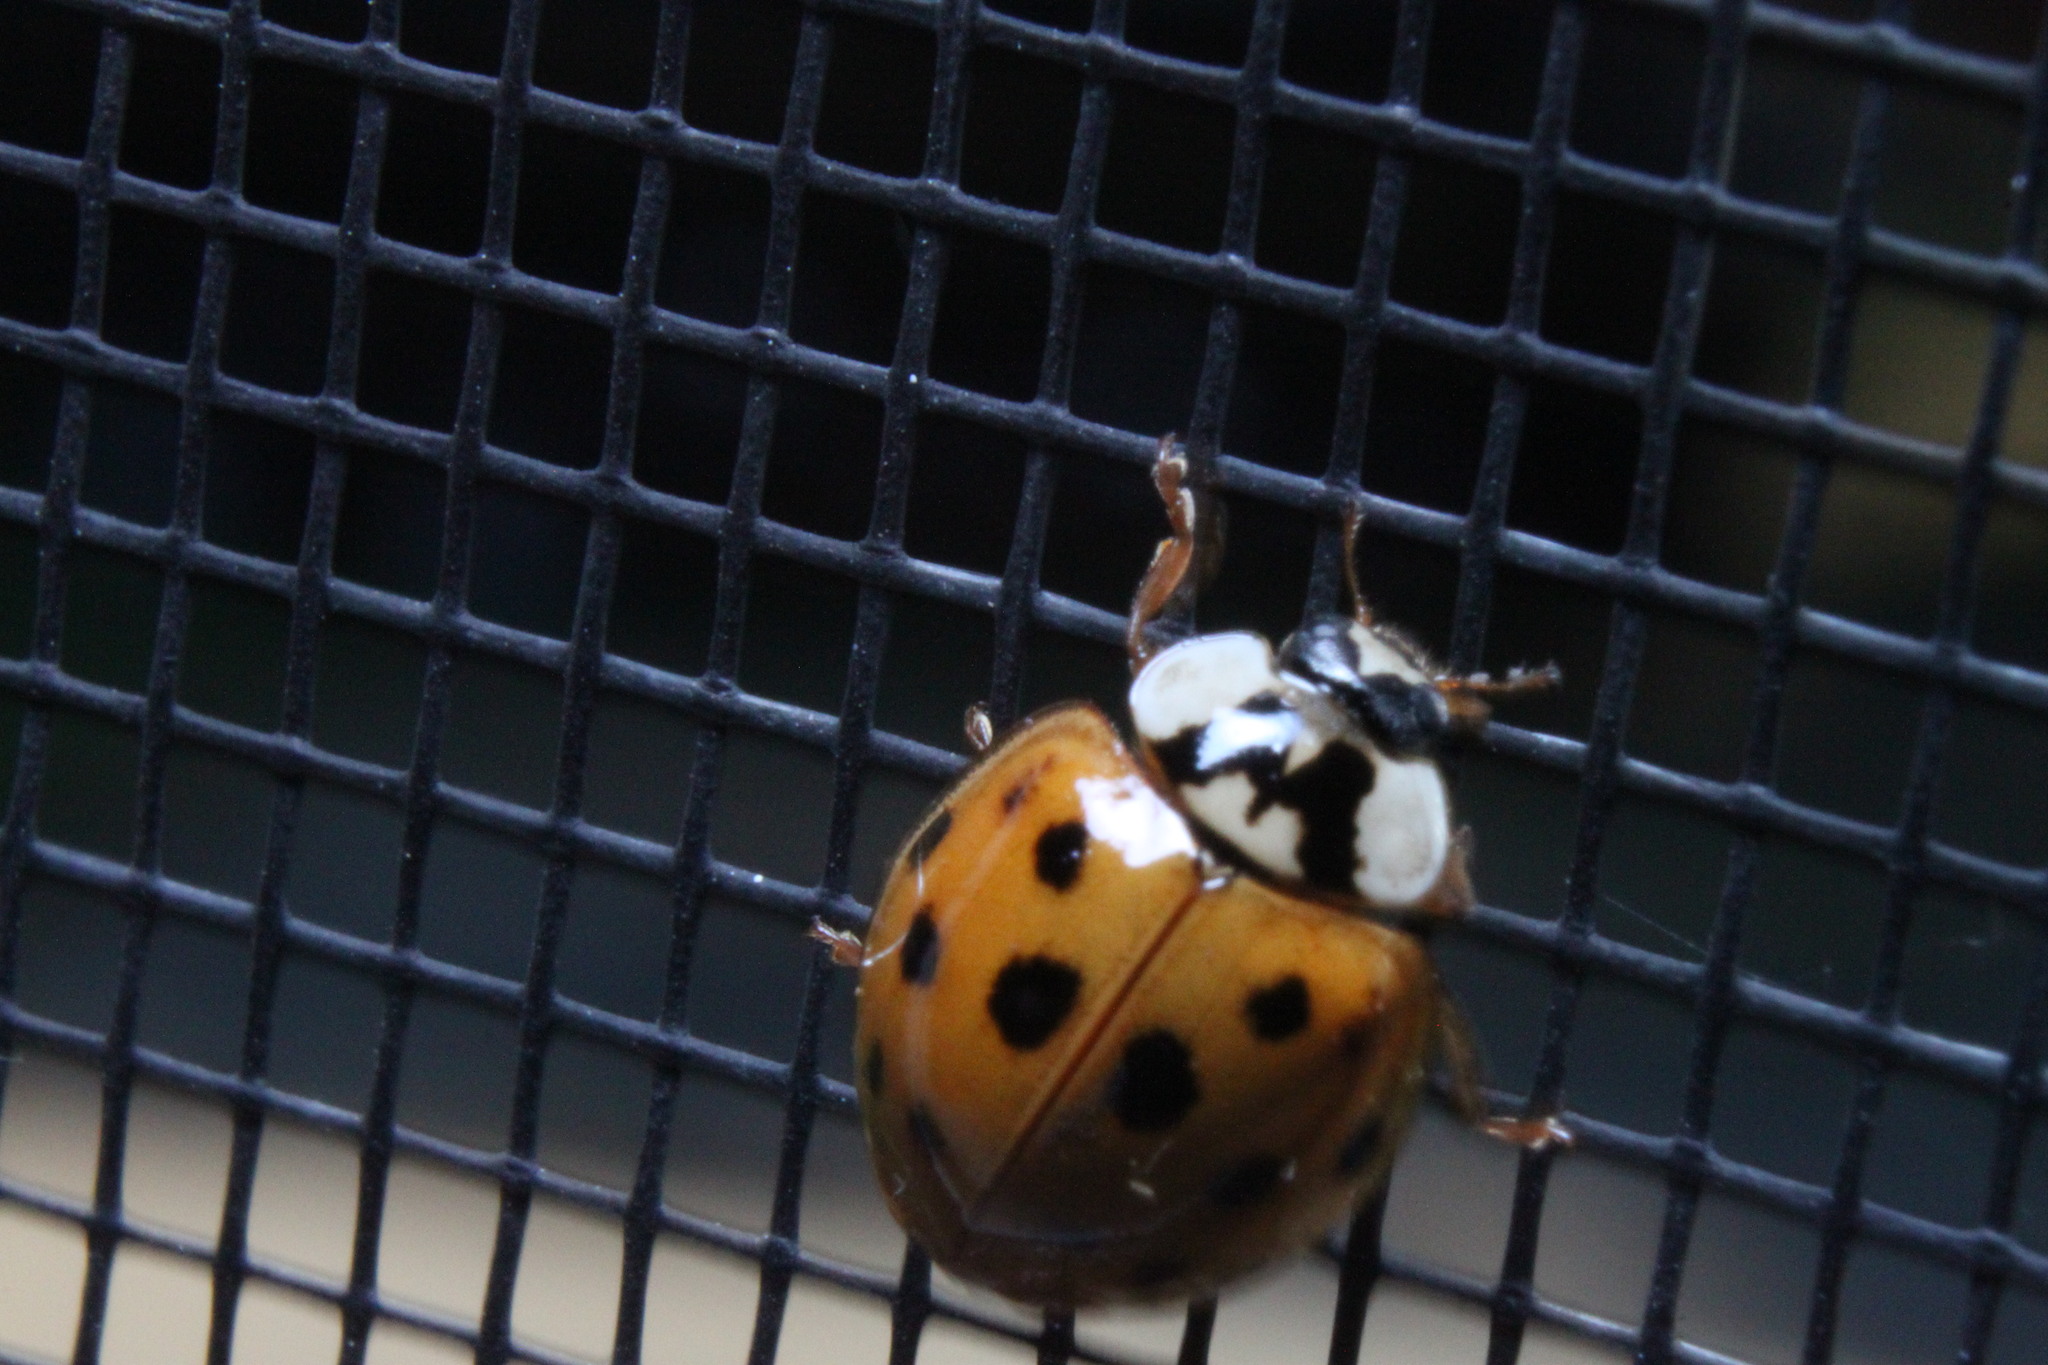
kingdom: Animalia
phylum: Arthropoda
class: Insecta
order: Coleoptera
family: Coccinellidae
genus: Harmonia
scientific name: Harmonia axyridis
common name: Harlequin ladybird
